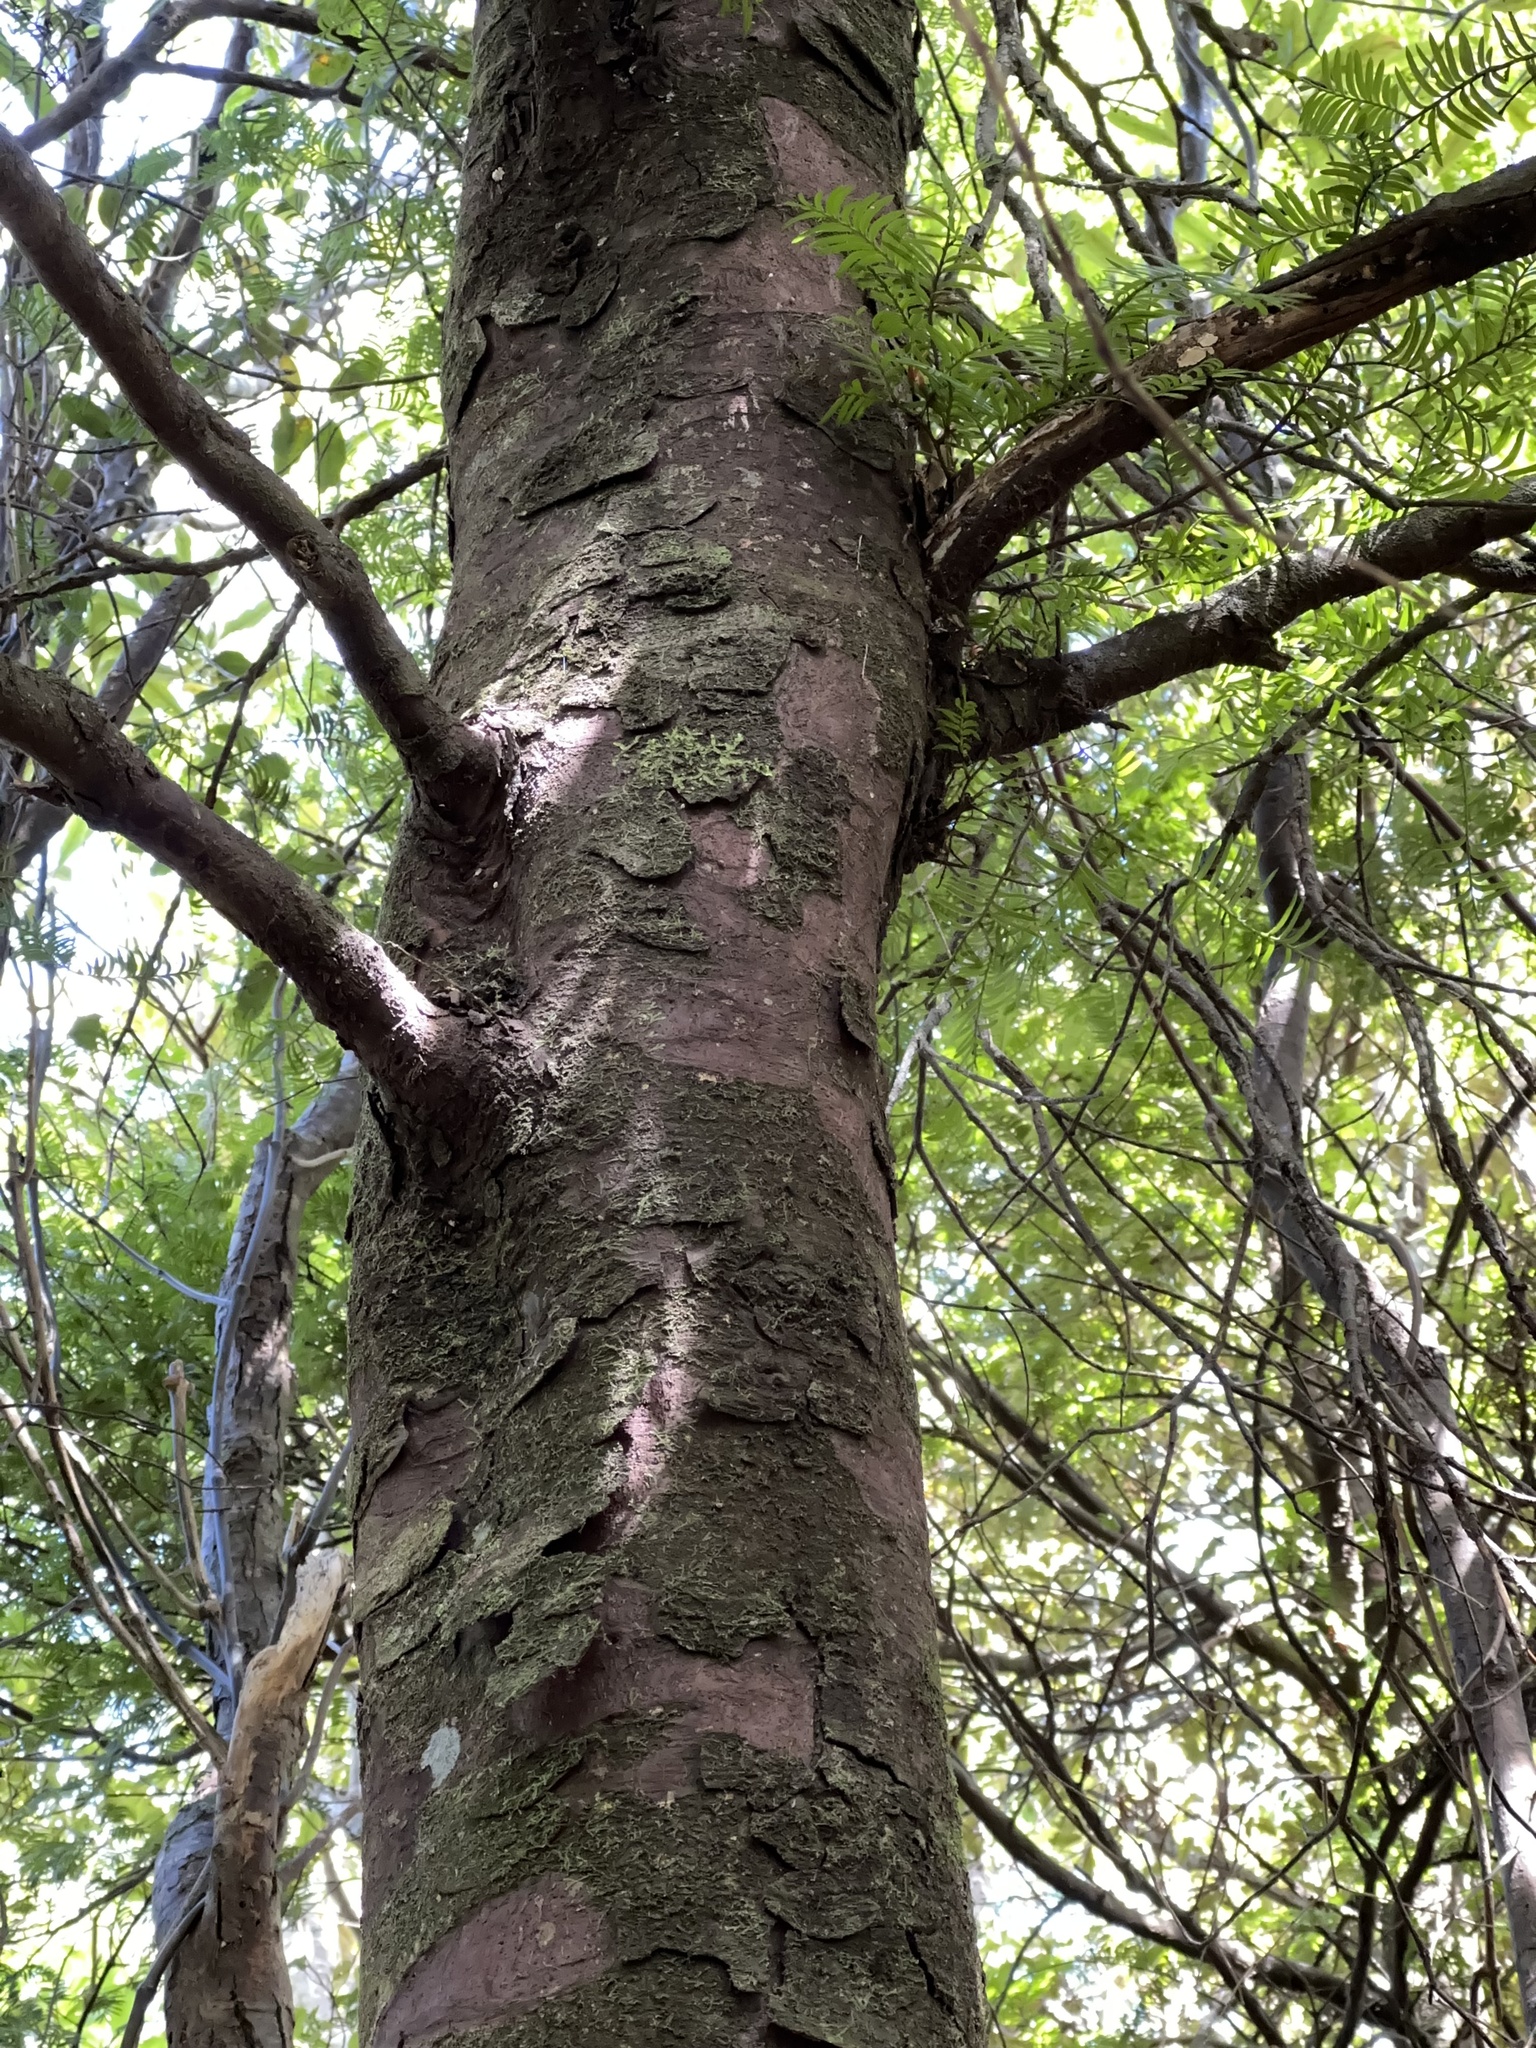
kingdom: Plantae
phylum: Tracheophyta
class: Pinopsida
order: Pinales
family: Podocarpaceae
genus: Prumnopitys
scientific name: Prumnopitys ferruginea
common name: Brown pine
